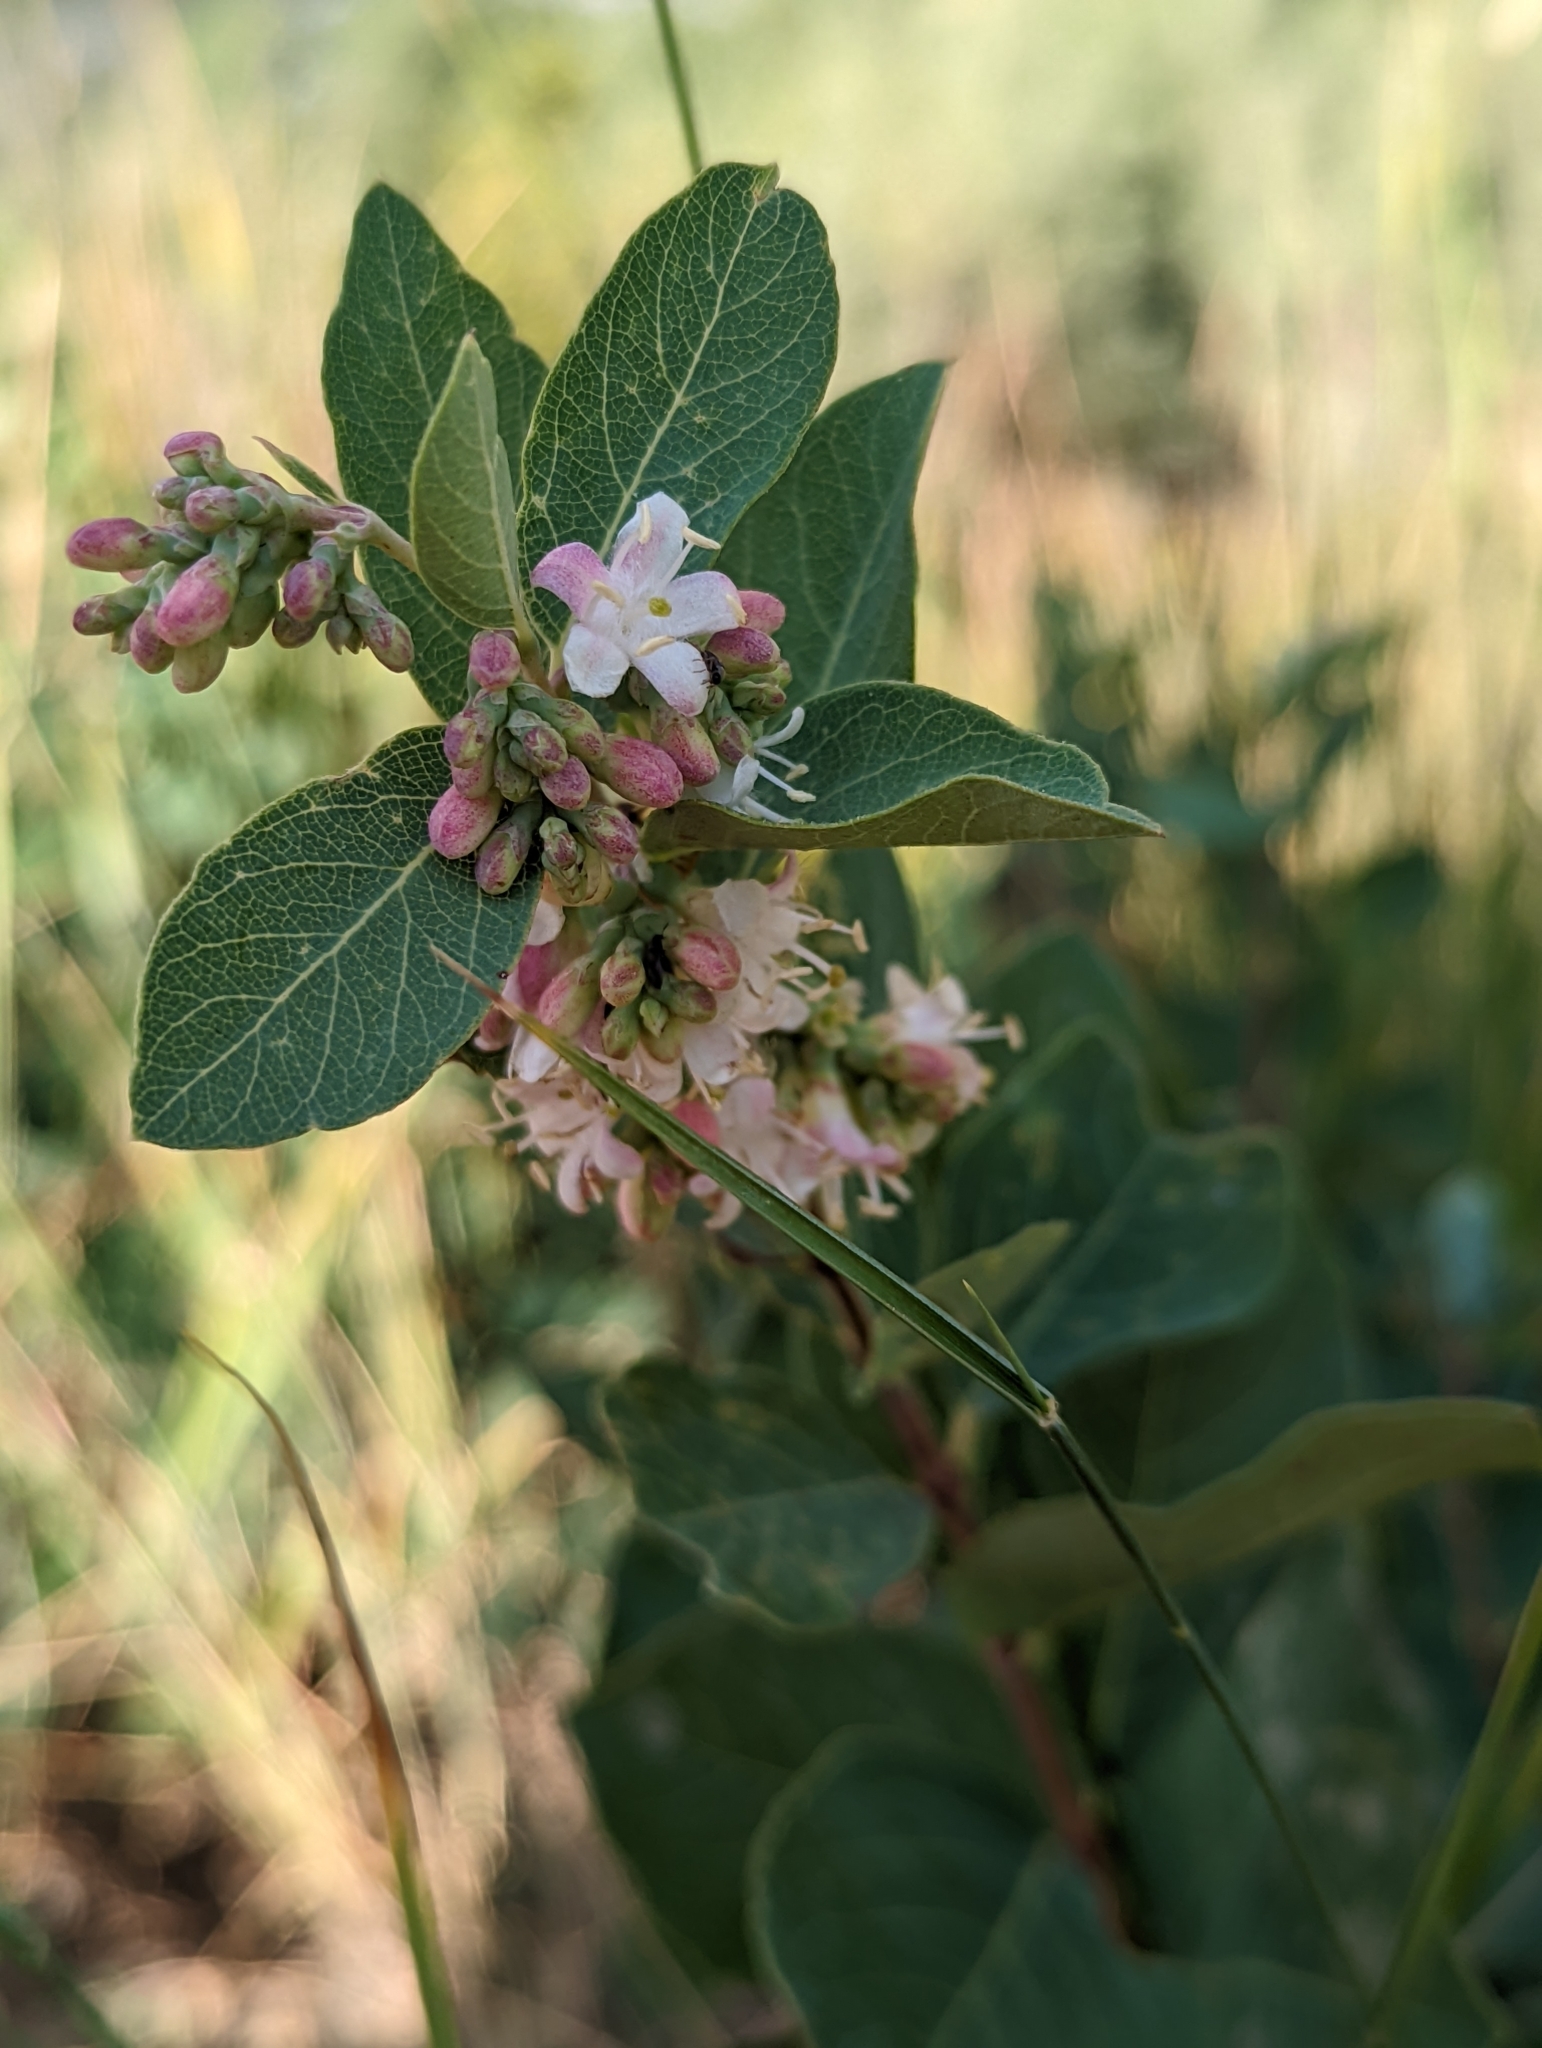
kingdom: Plantae
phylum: Tracheophyta
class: Magnoliopsida
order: Dipsacales
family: Caprifoliaceae
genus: Symphoricarpos
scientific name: Symphoricarpos occidentalis
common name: Wolfberry
